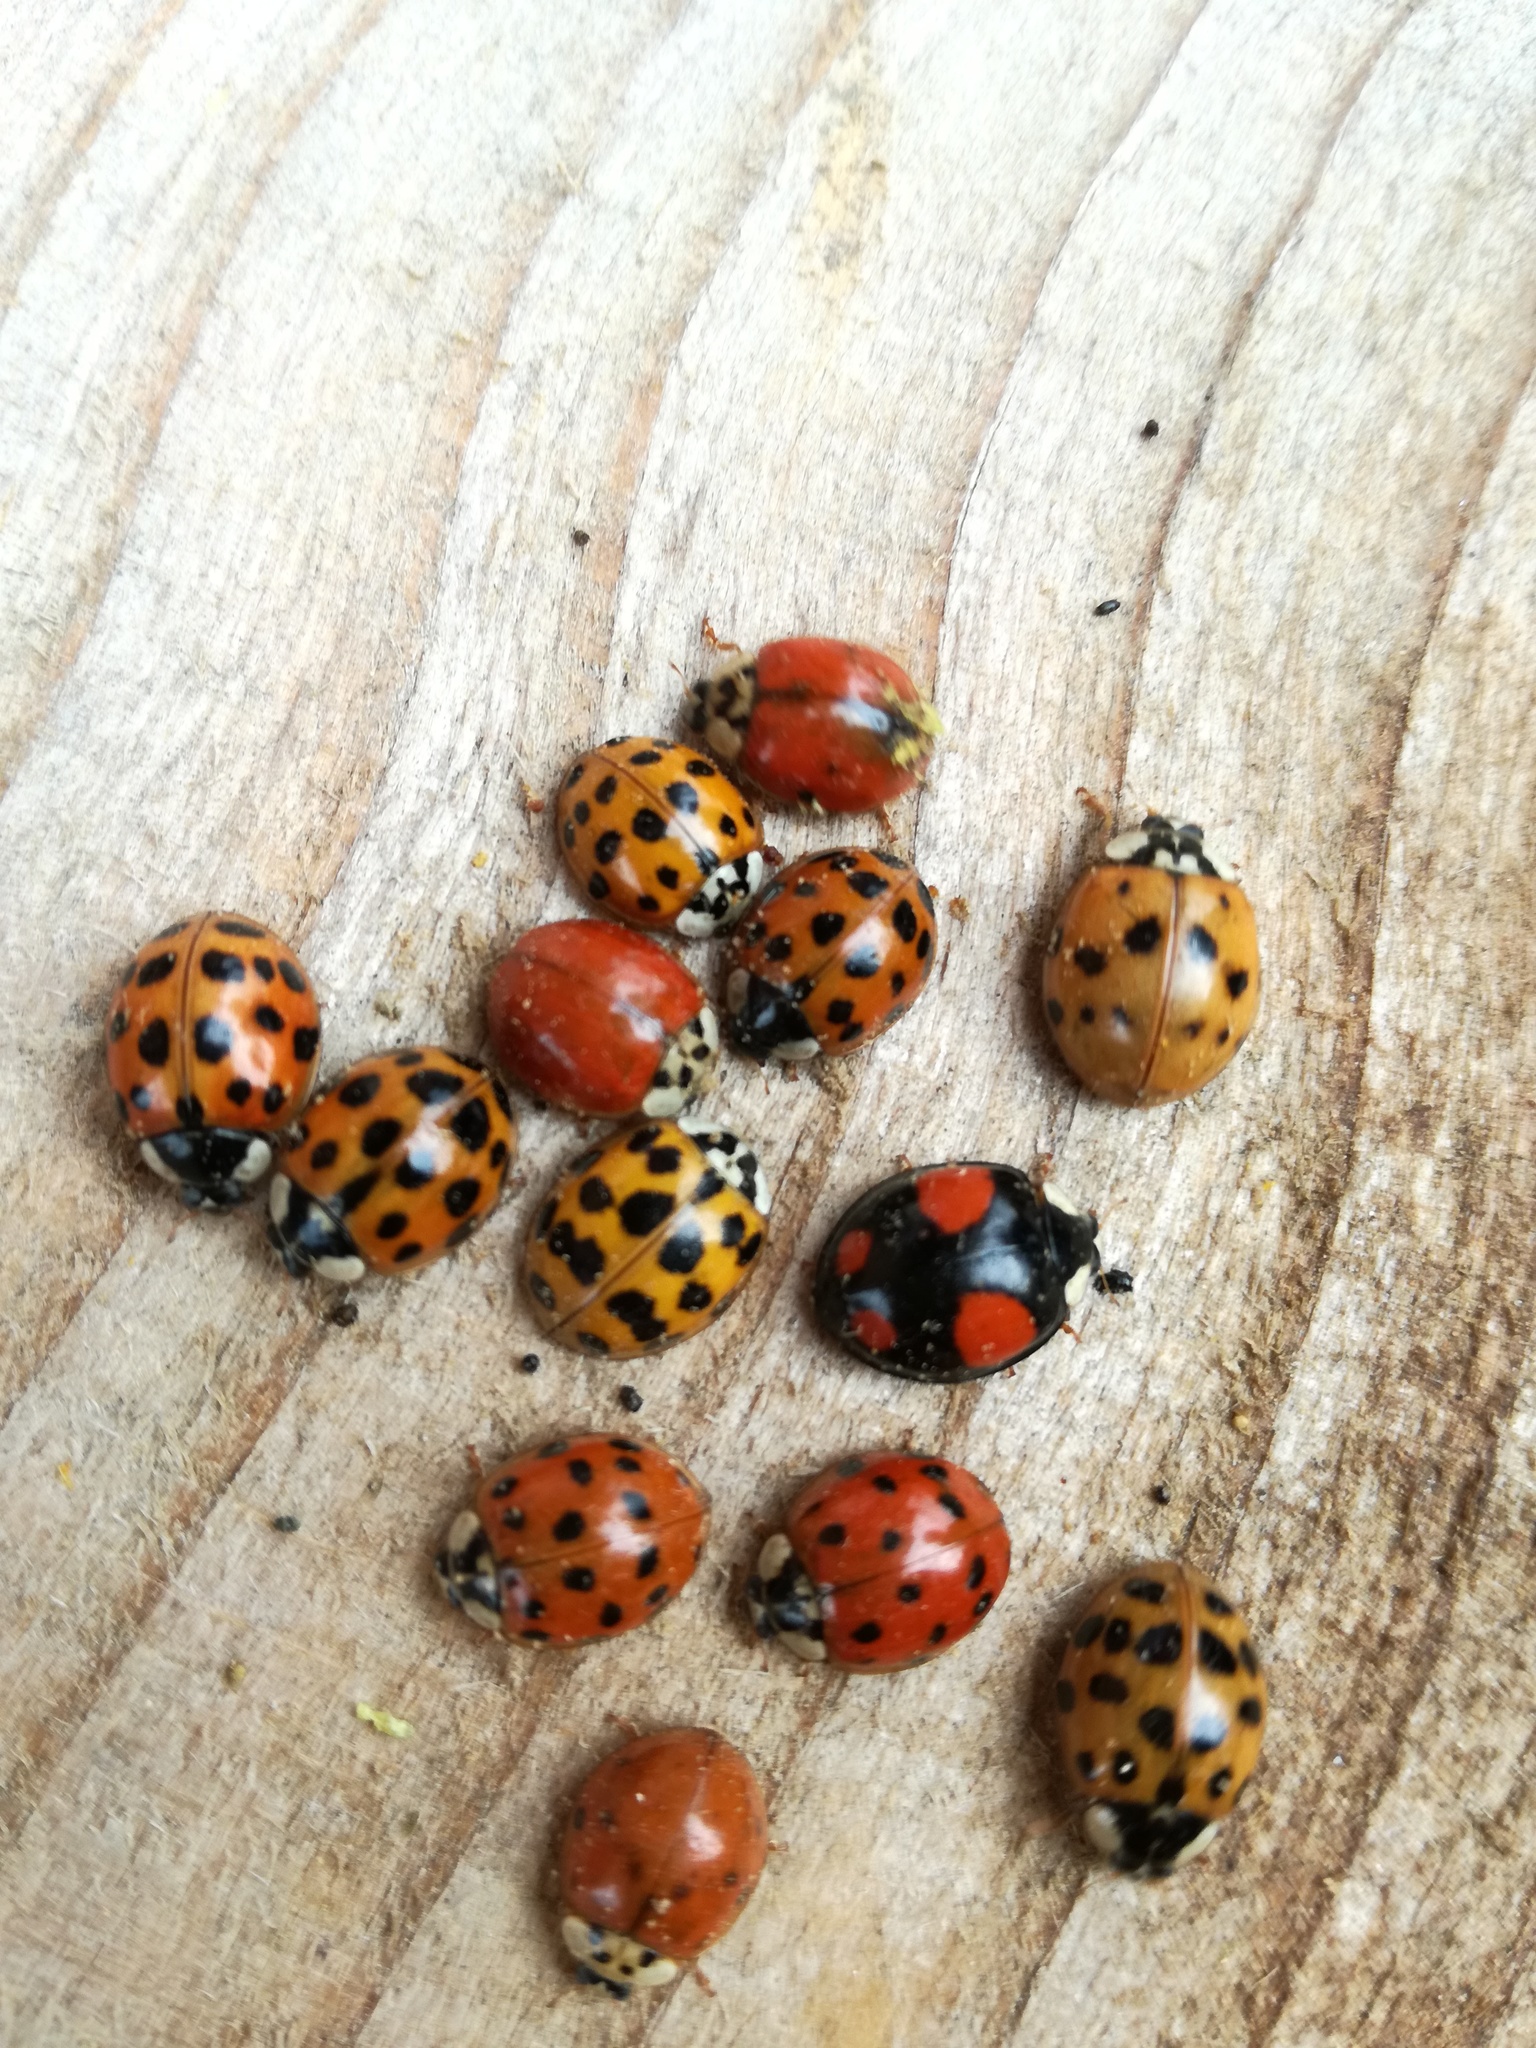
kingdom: Animalia
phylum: Arthropoda
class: Insecta
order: Coleoptera
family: Coccinellidae
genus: Harmonia
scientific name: Harmonia axyridis
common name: Harlequin ladybird
